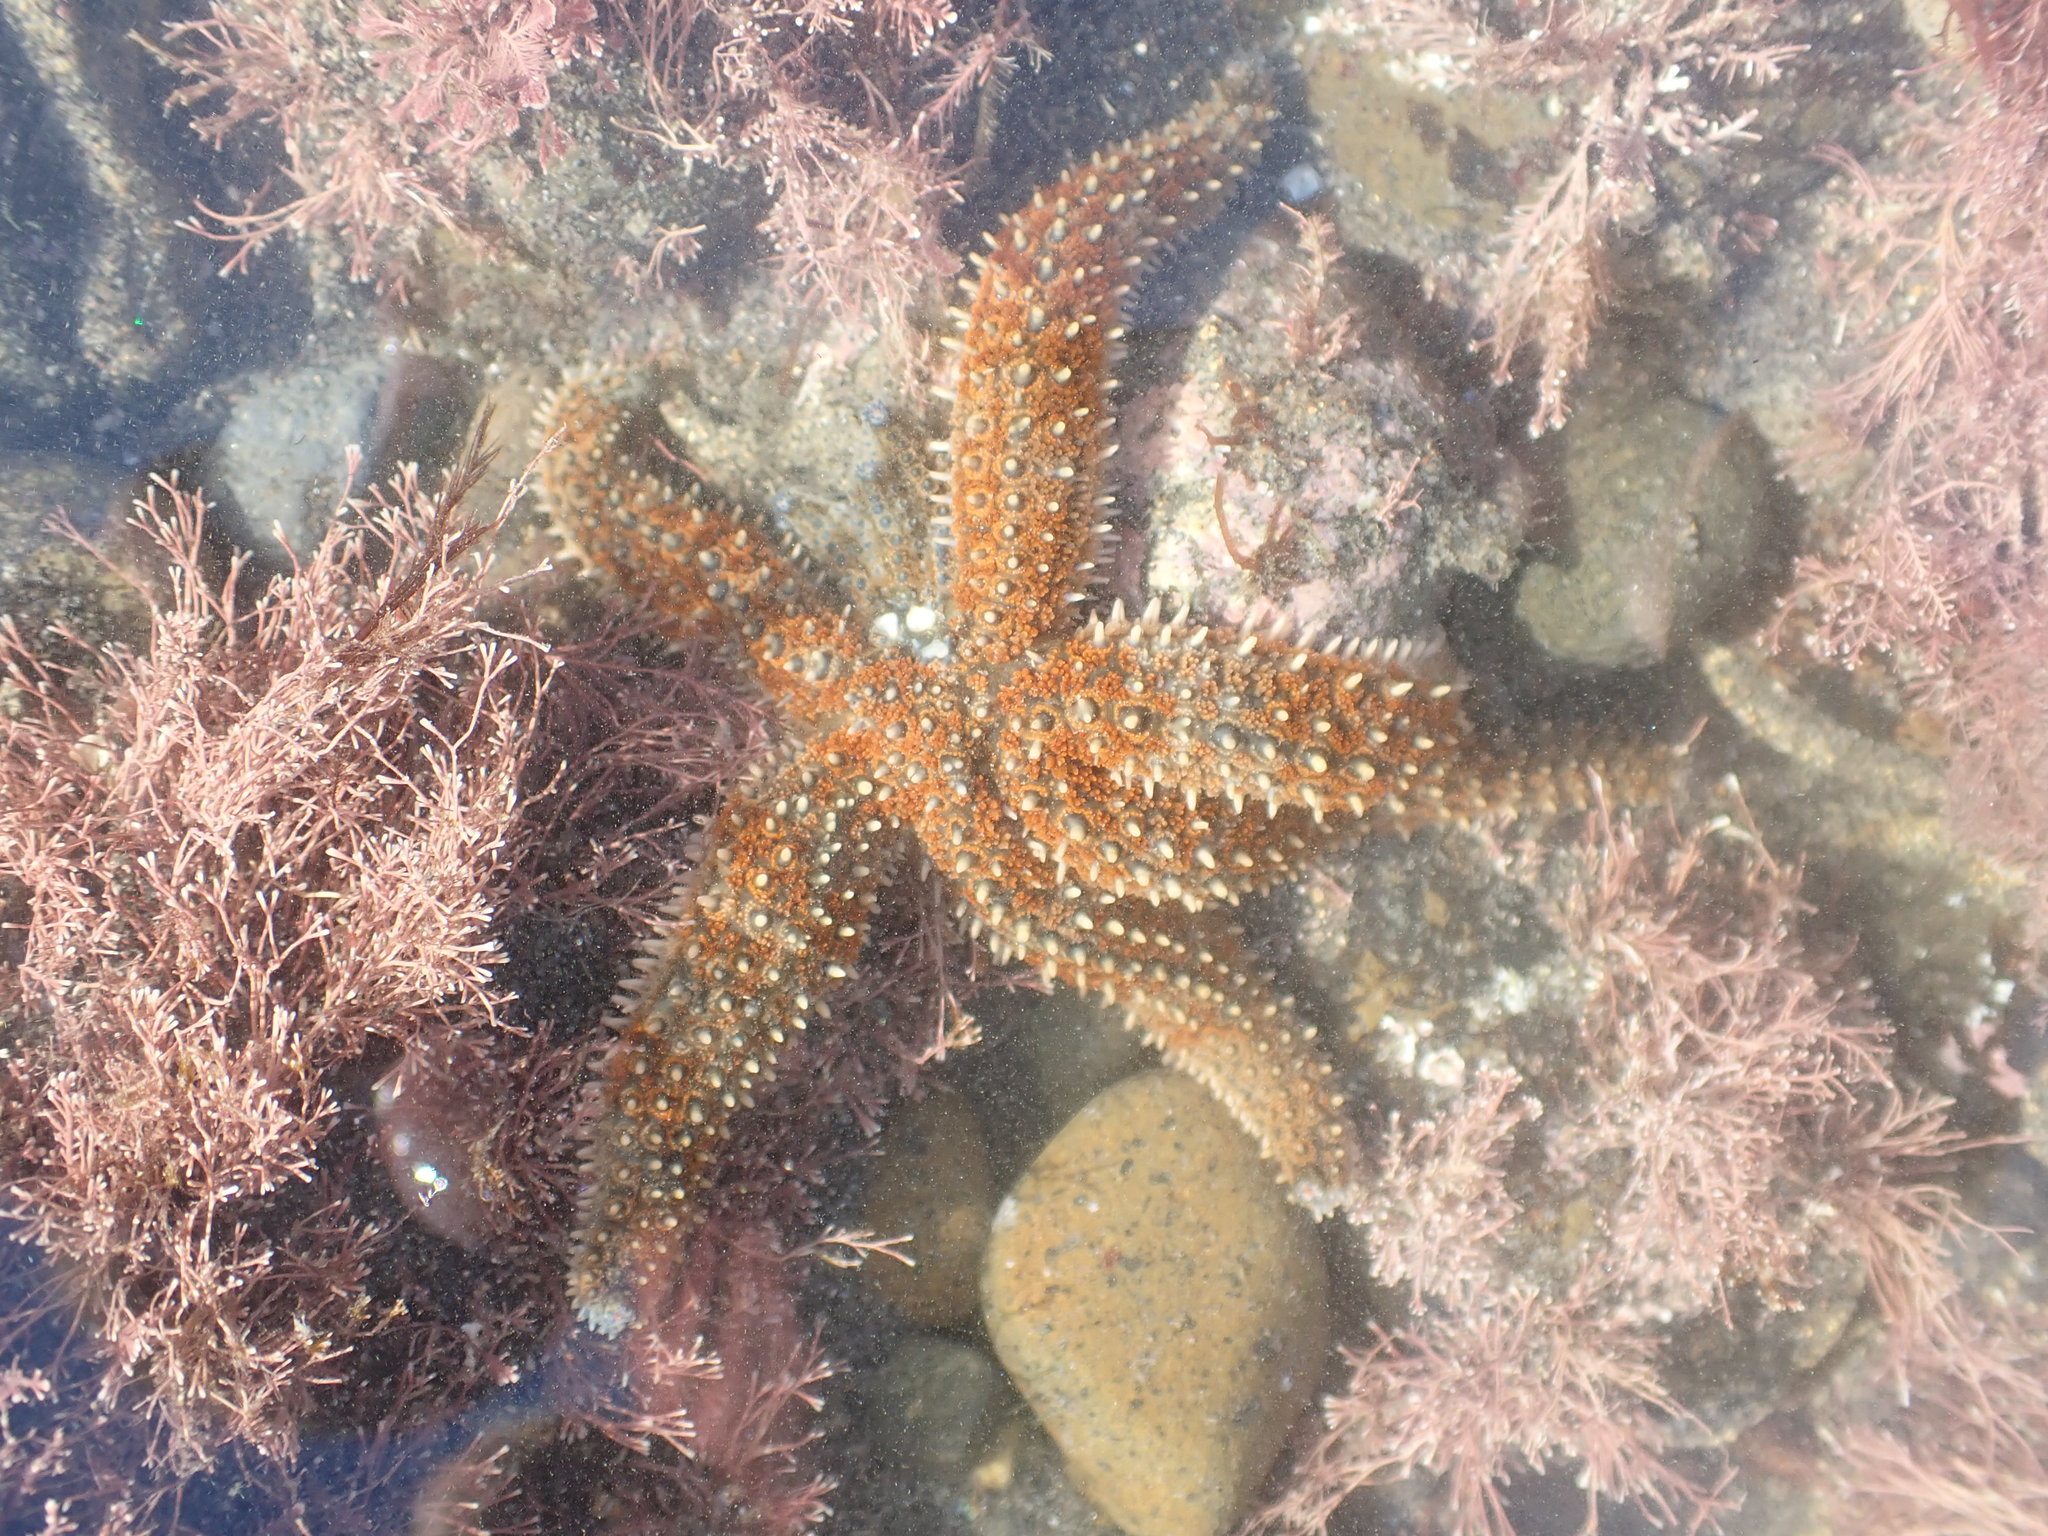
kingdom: Animalia
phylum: Echinodermata
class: Asteroidea
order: Forcipulatida
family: Asteriidae
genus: Coscinasterias
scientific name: Coscinasterias muricata
